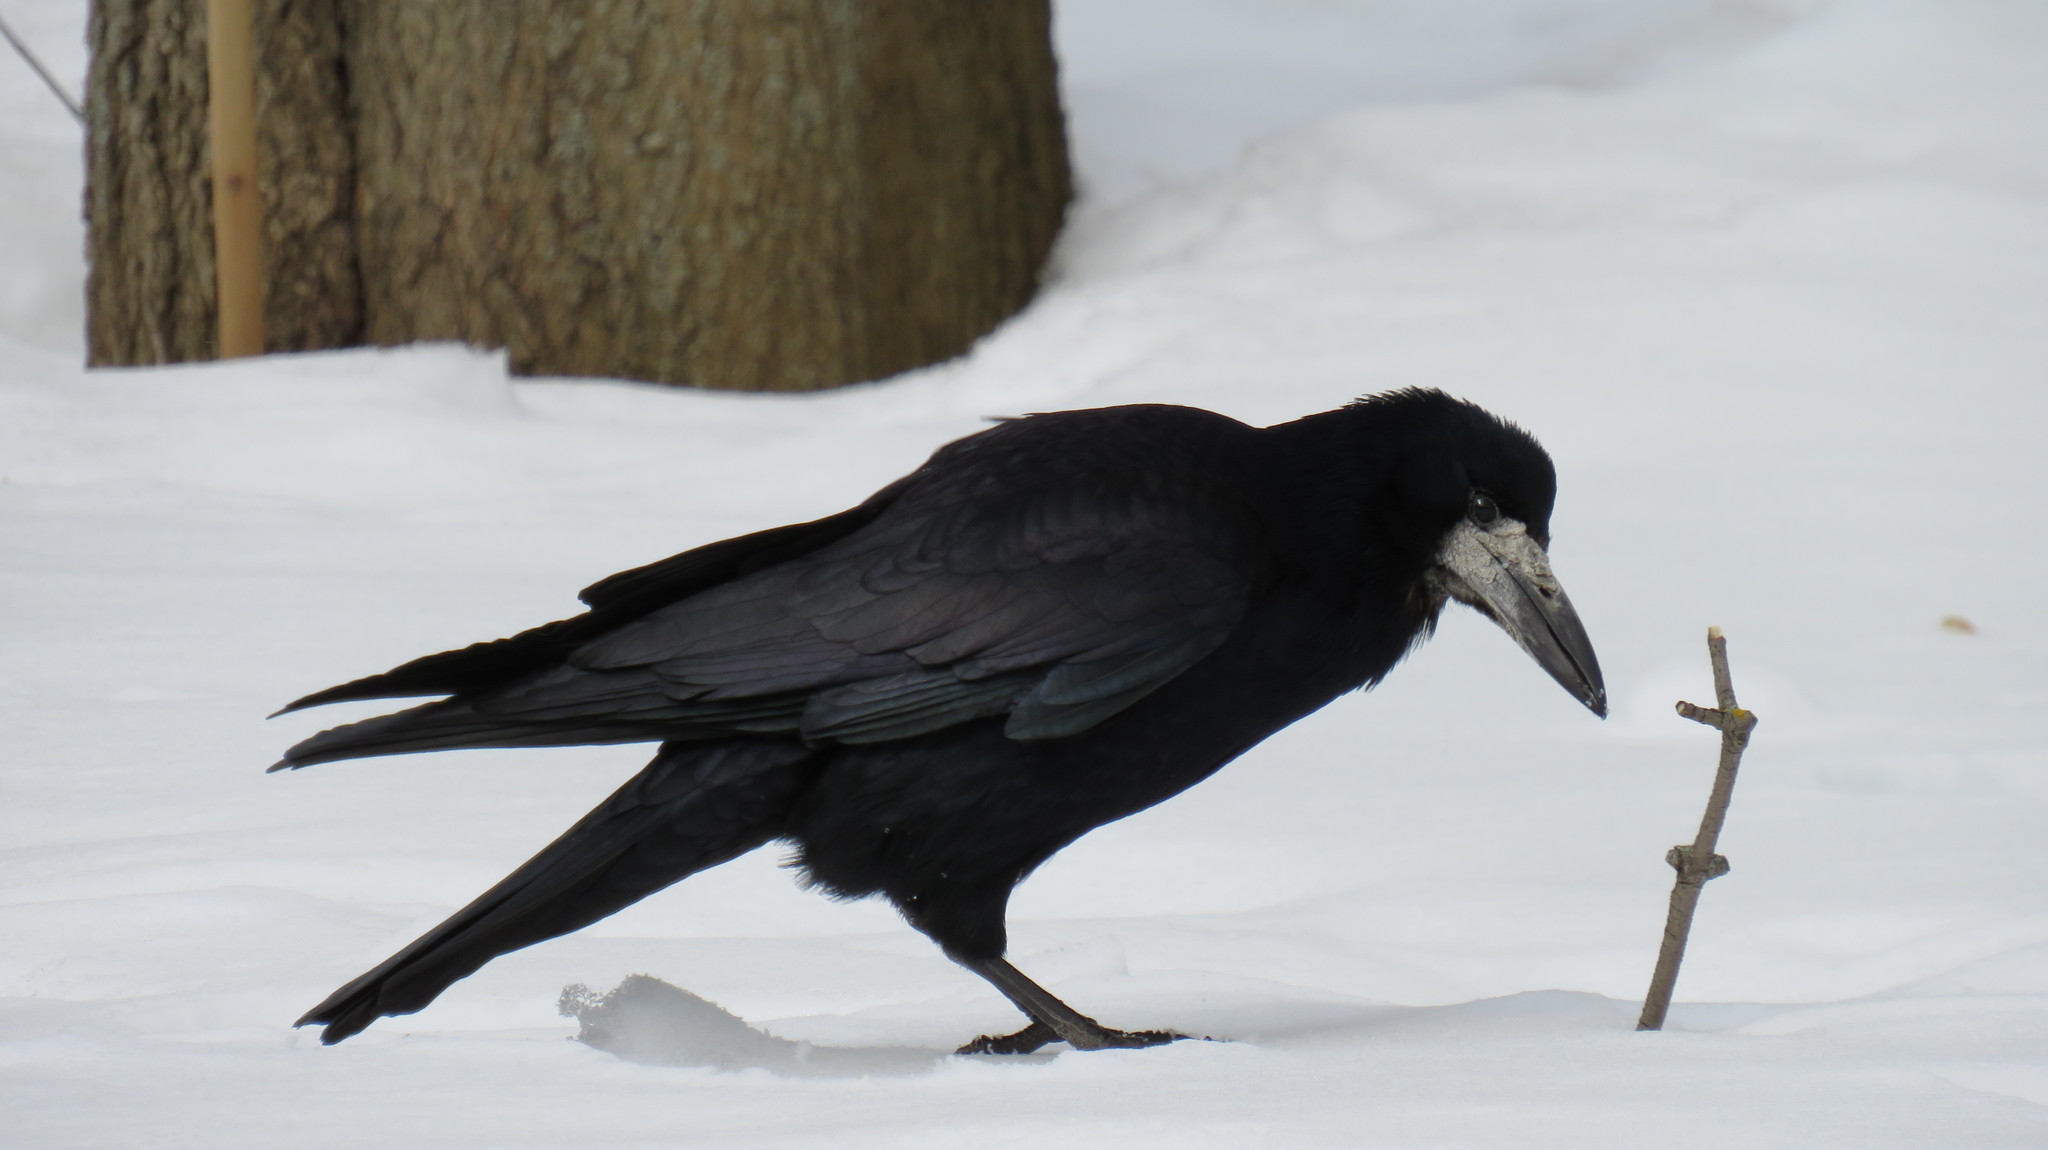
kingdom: Animalia
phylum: Chordata
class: Aves
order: Passeriformes
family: Corvidae
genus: Corvus
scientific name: Corvus frugilegus
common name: Rook
